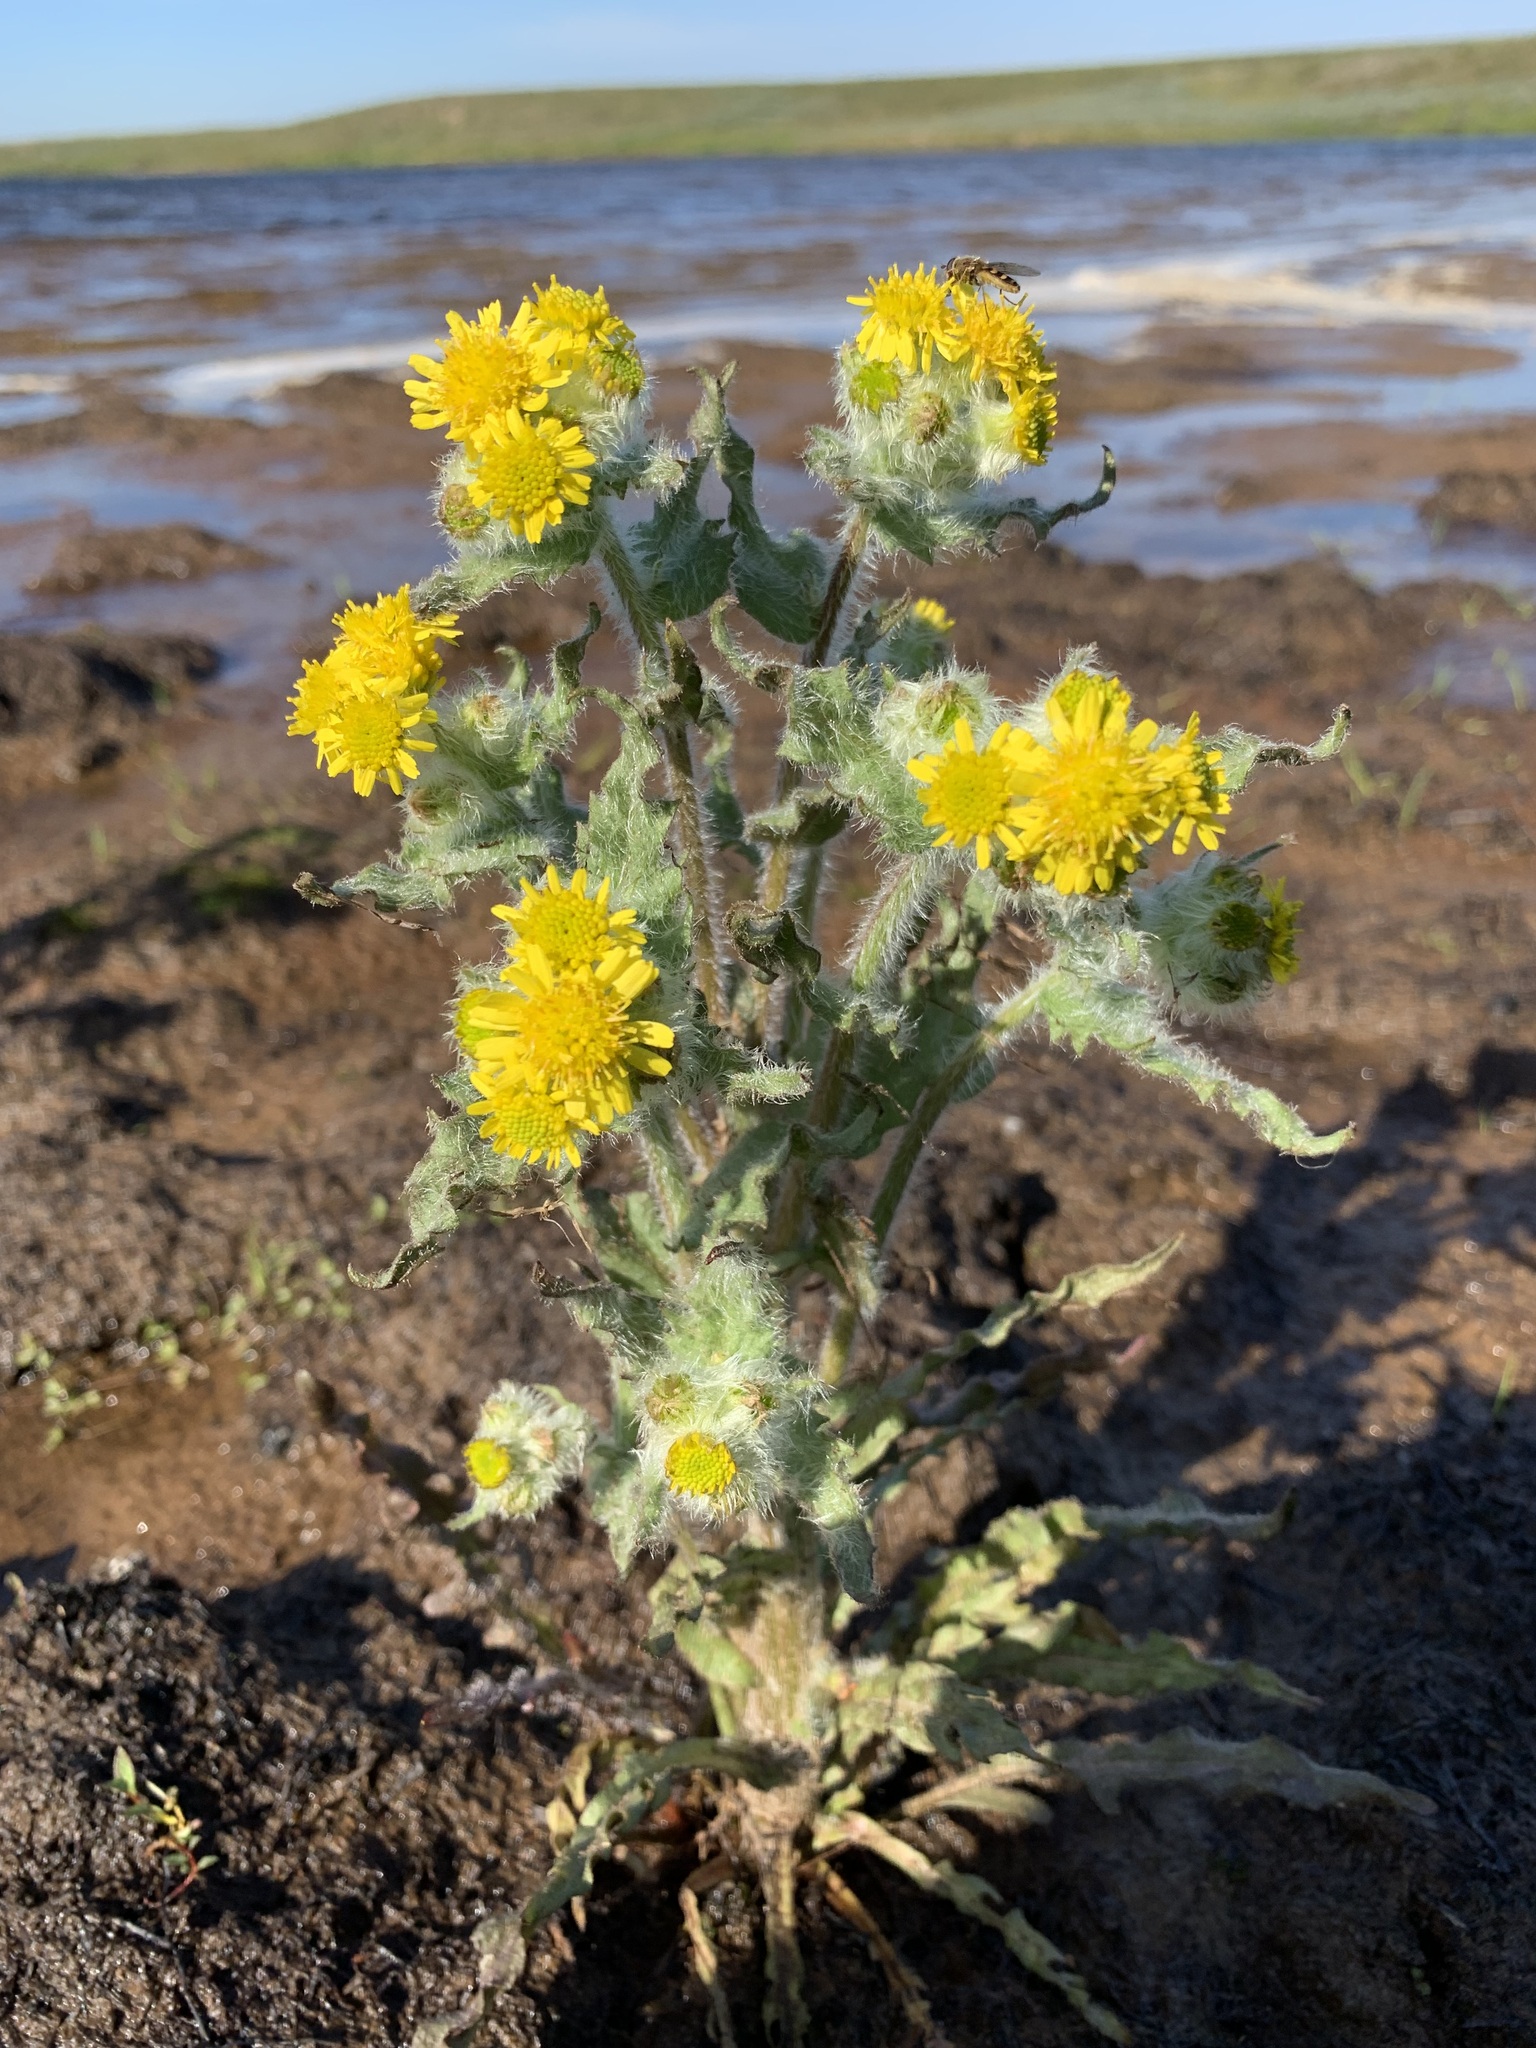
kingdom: Plantae
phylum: Tracheophyta
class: Magnoliopsida
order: Asterales
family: Asteraceae
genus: Tephroseris
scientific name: Tephroseris palustris
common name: Marsh fleawort
